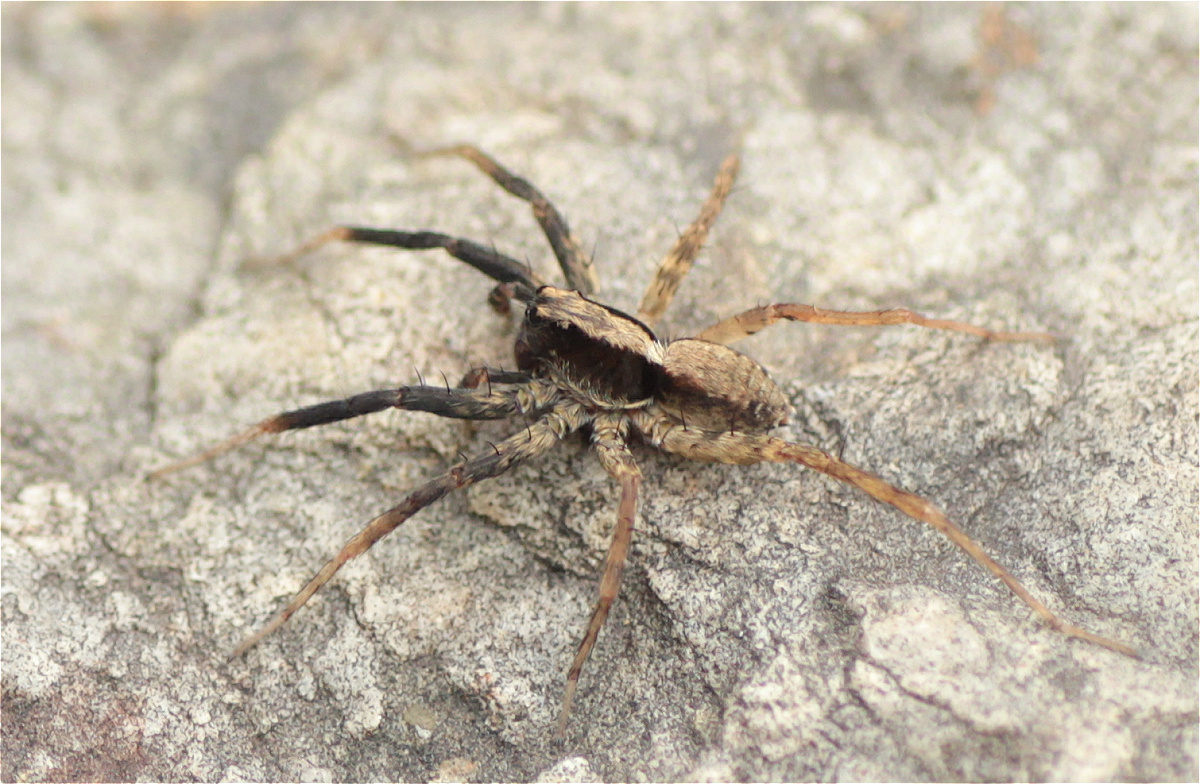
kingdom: Animalia
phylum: Arthropoda
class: Arachnida
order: Araneae
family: Lycosidae
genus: Schizocosa
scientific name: Schizocosa tristani
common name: Wolf spider
